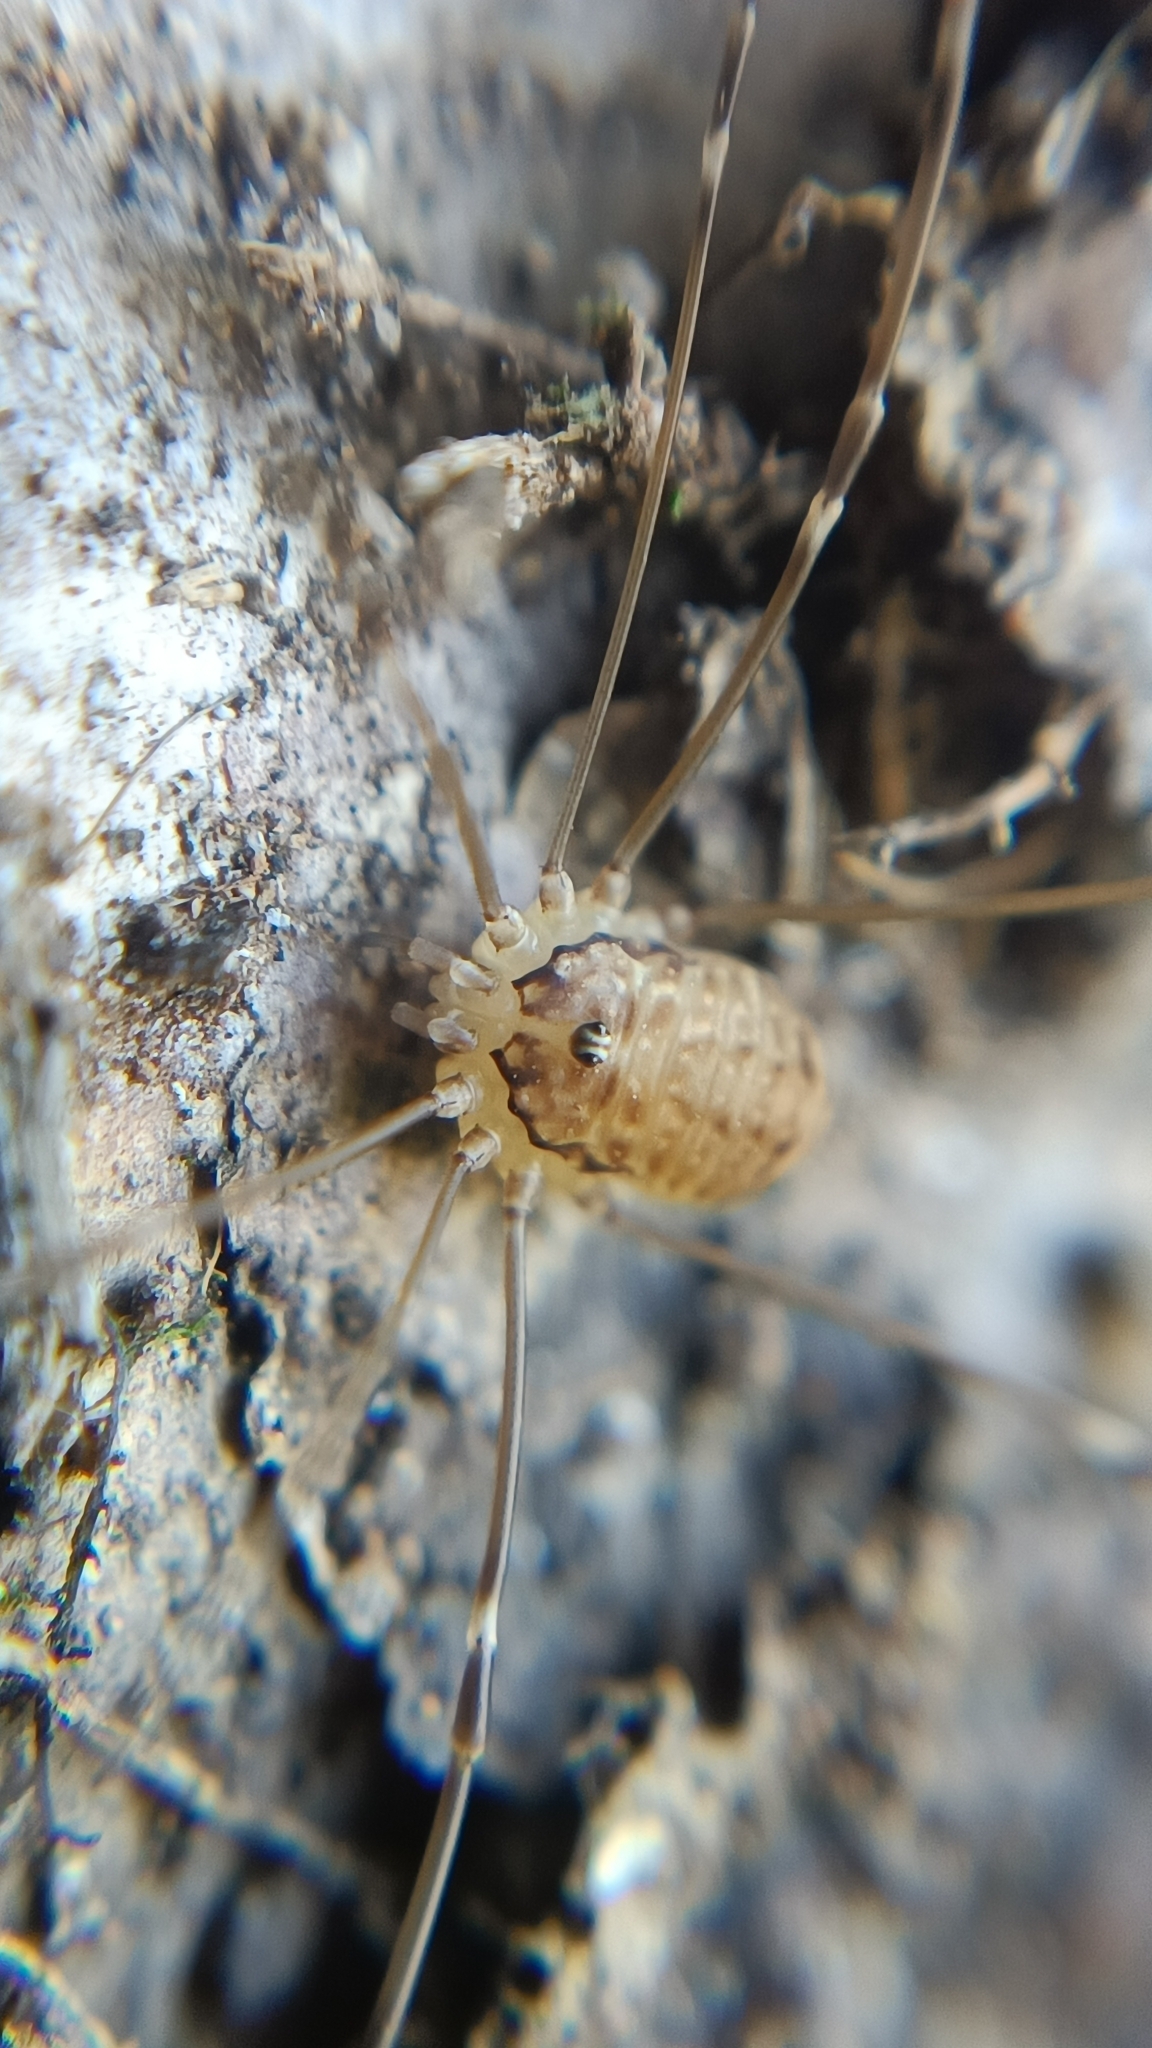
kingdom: Animalia
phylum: Arthropoda
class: Arachnida
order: Opiliones
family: Sclerosomatidae
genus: Leiobunum
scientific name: Leiobunum blackwalli
